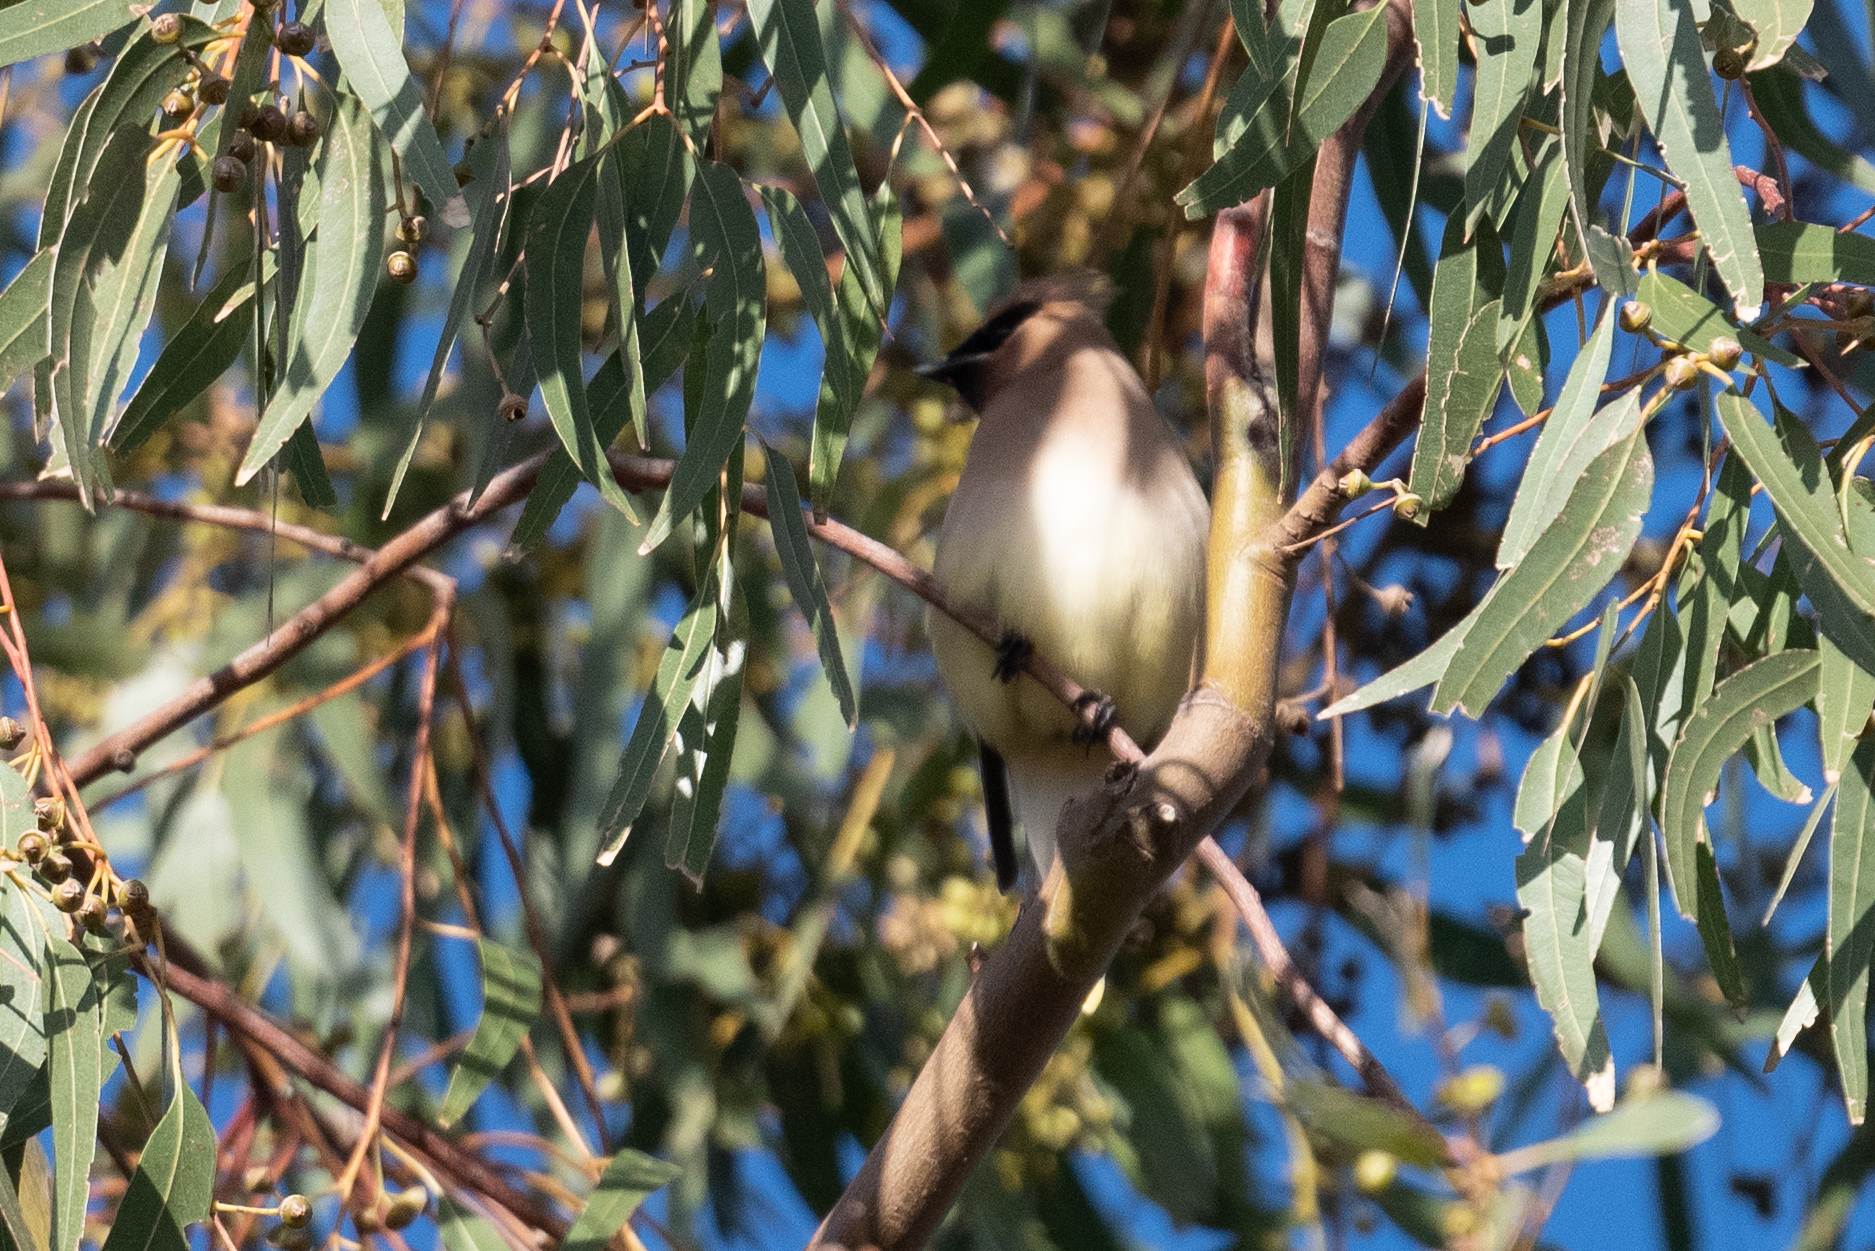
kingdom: Animalia
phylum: Chordata
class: Aves
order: Passeriformes
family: Bombycillidae
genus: Bombycilla
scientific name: Bombycilla cedrorum
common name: Cedar waxwing
